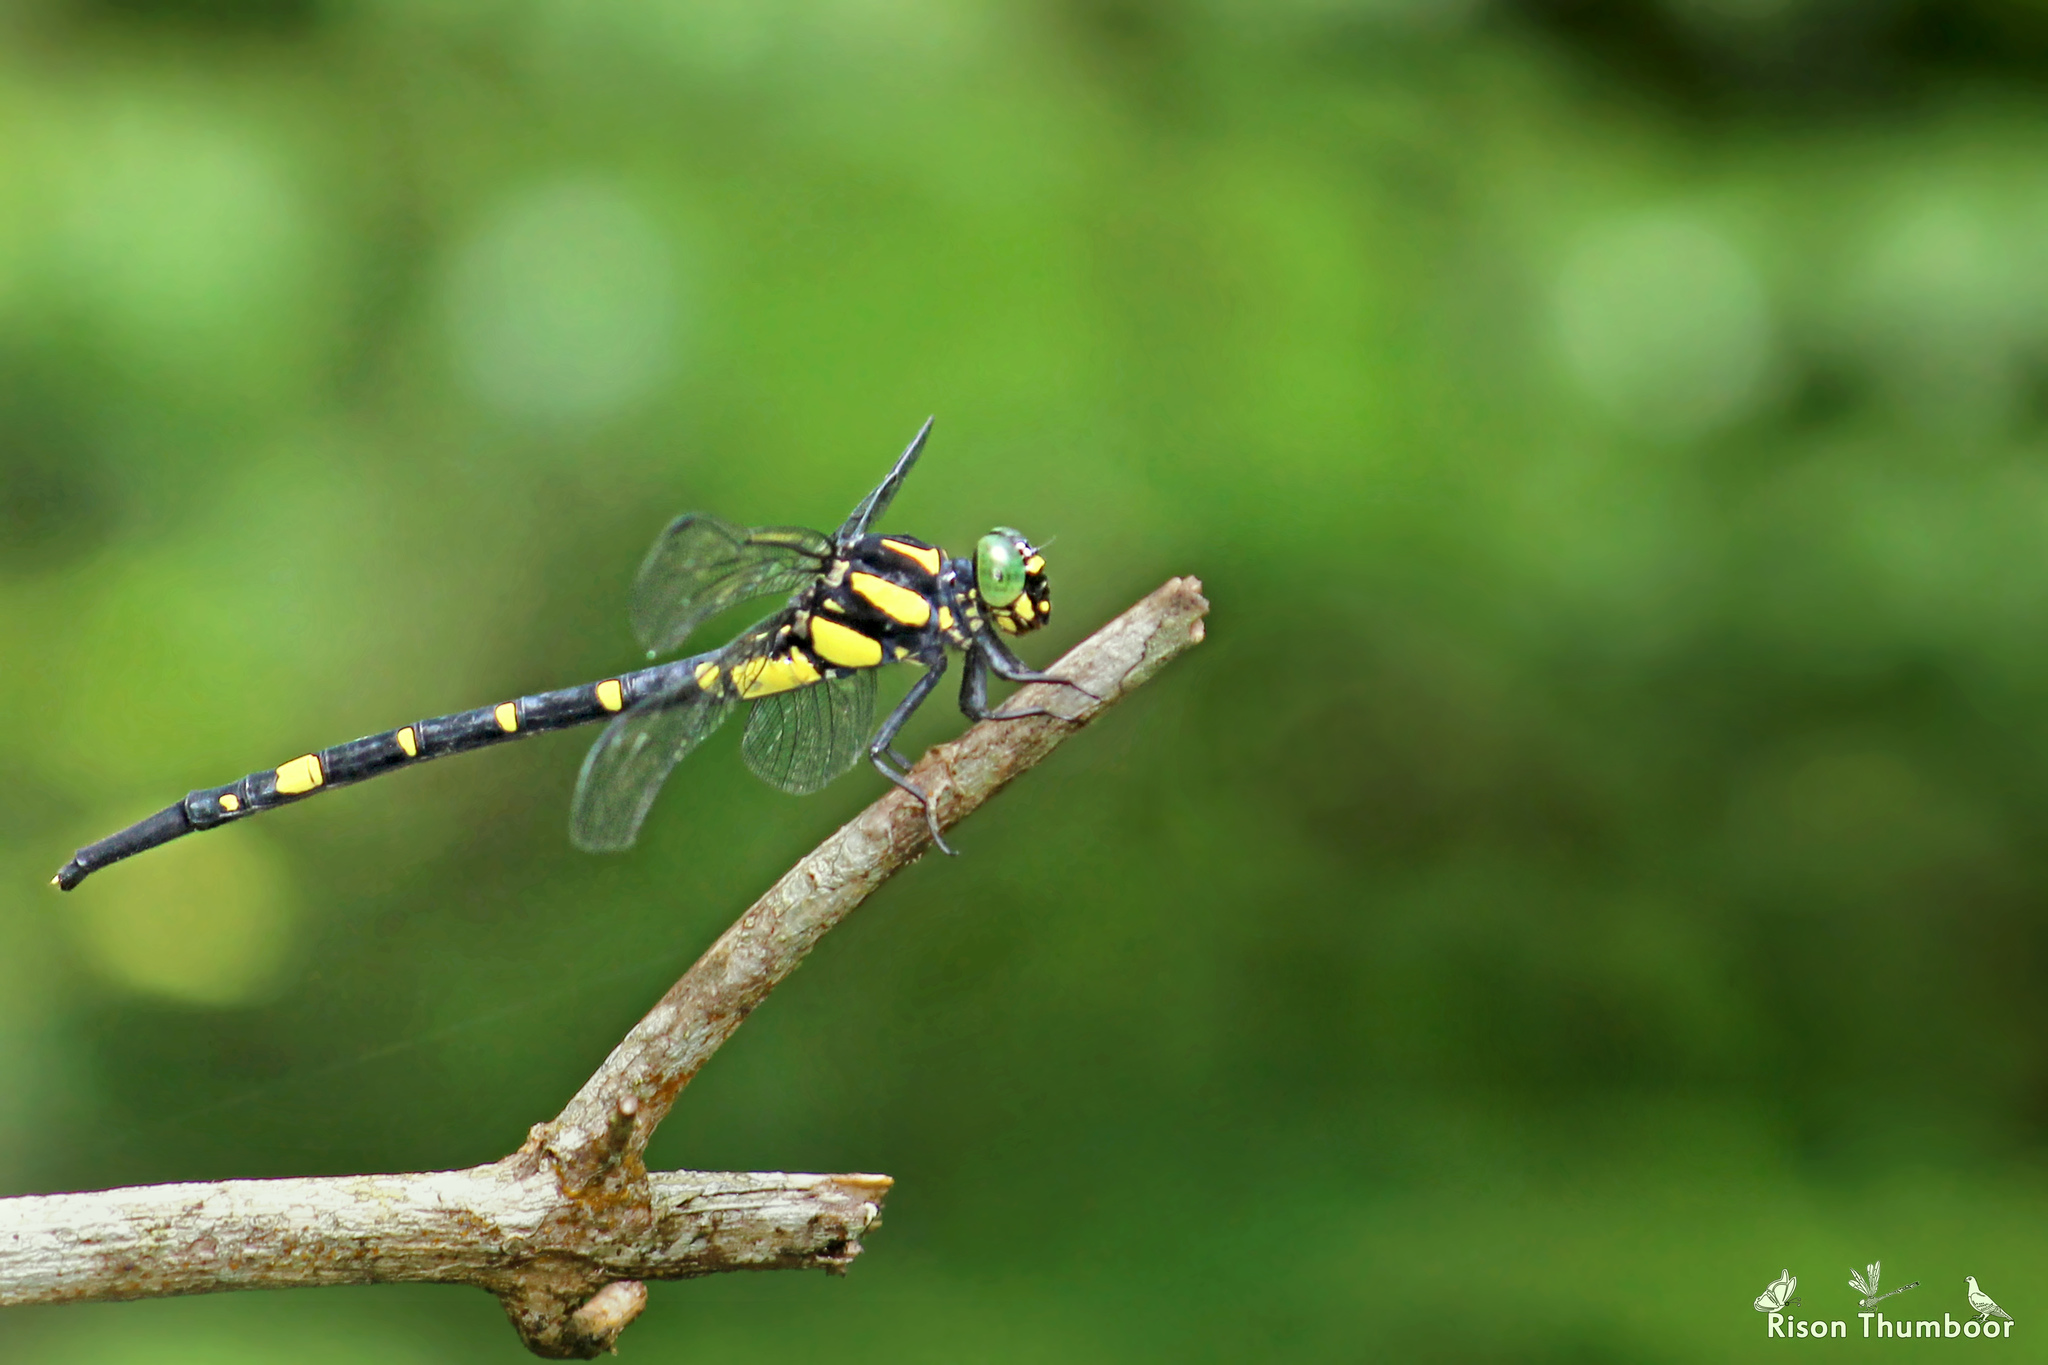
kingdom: Animalia
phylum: Arthropoda
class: Insecta
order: Odonata
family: Gomphidae
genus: Macrogomphus
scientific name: Macrogomphus wynaadicus
